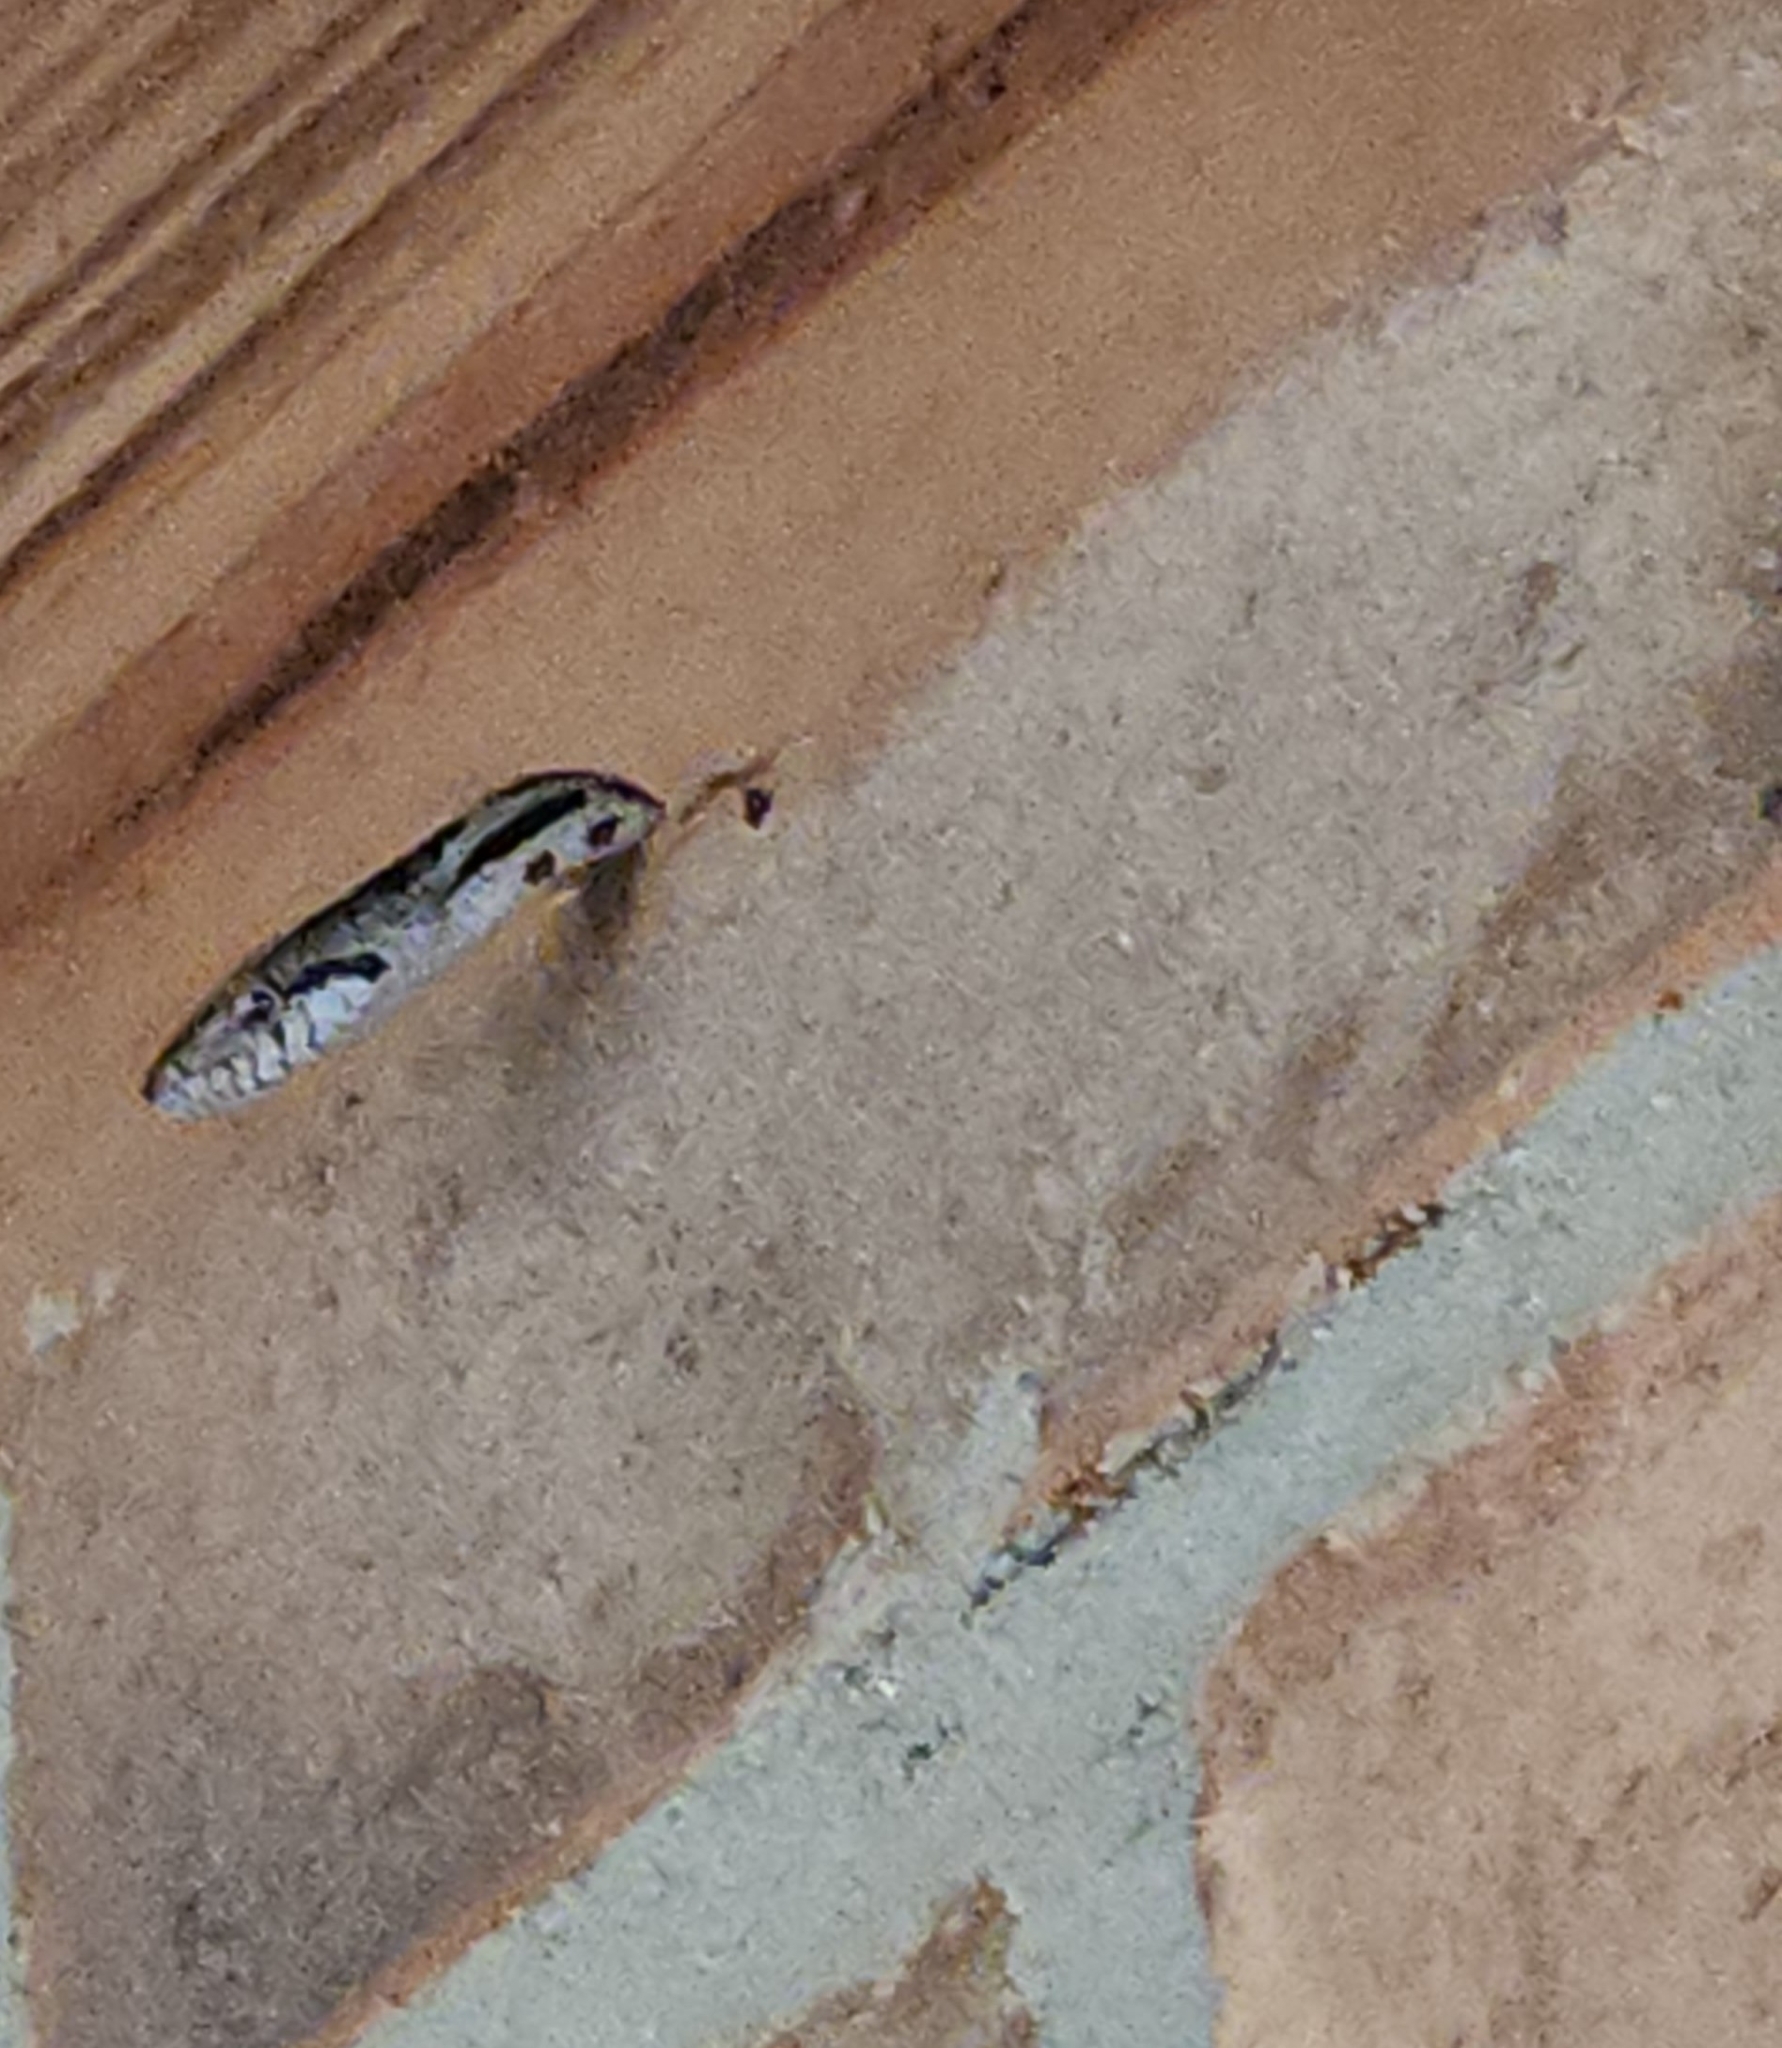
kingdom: Animalia
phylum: Chordata
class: Squamata
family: Colubridae
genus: Pantherophis
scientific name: Pantherophis
